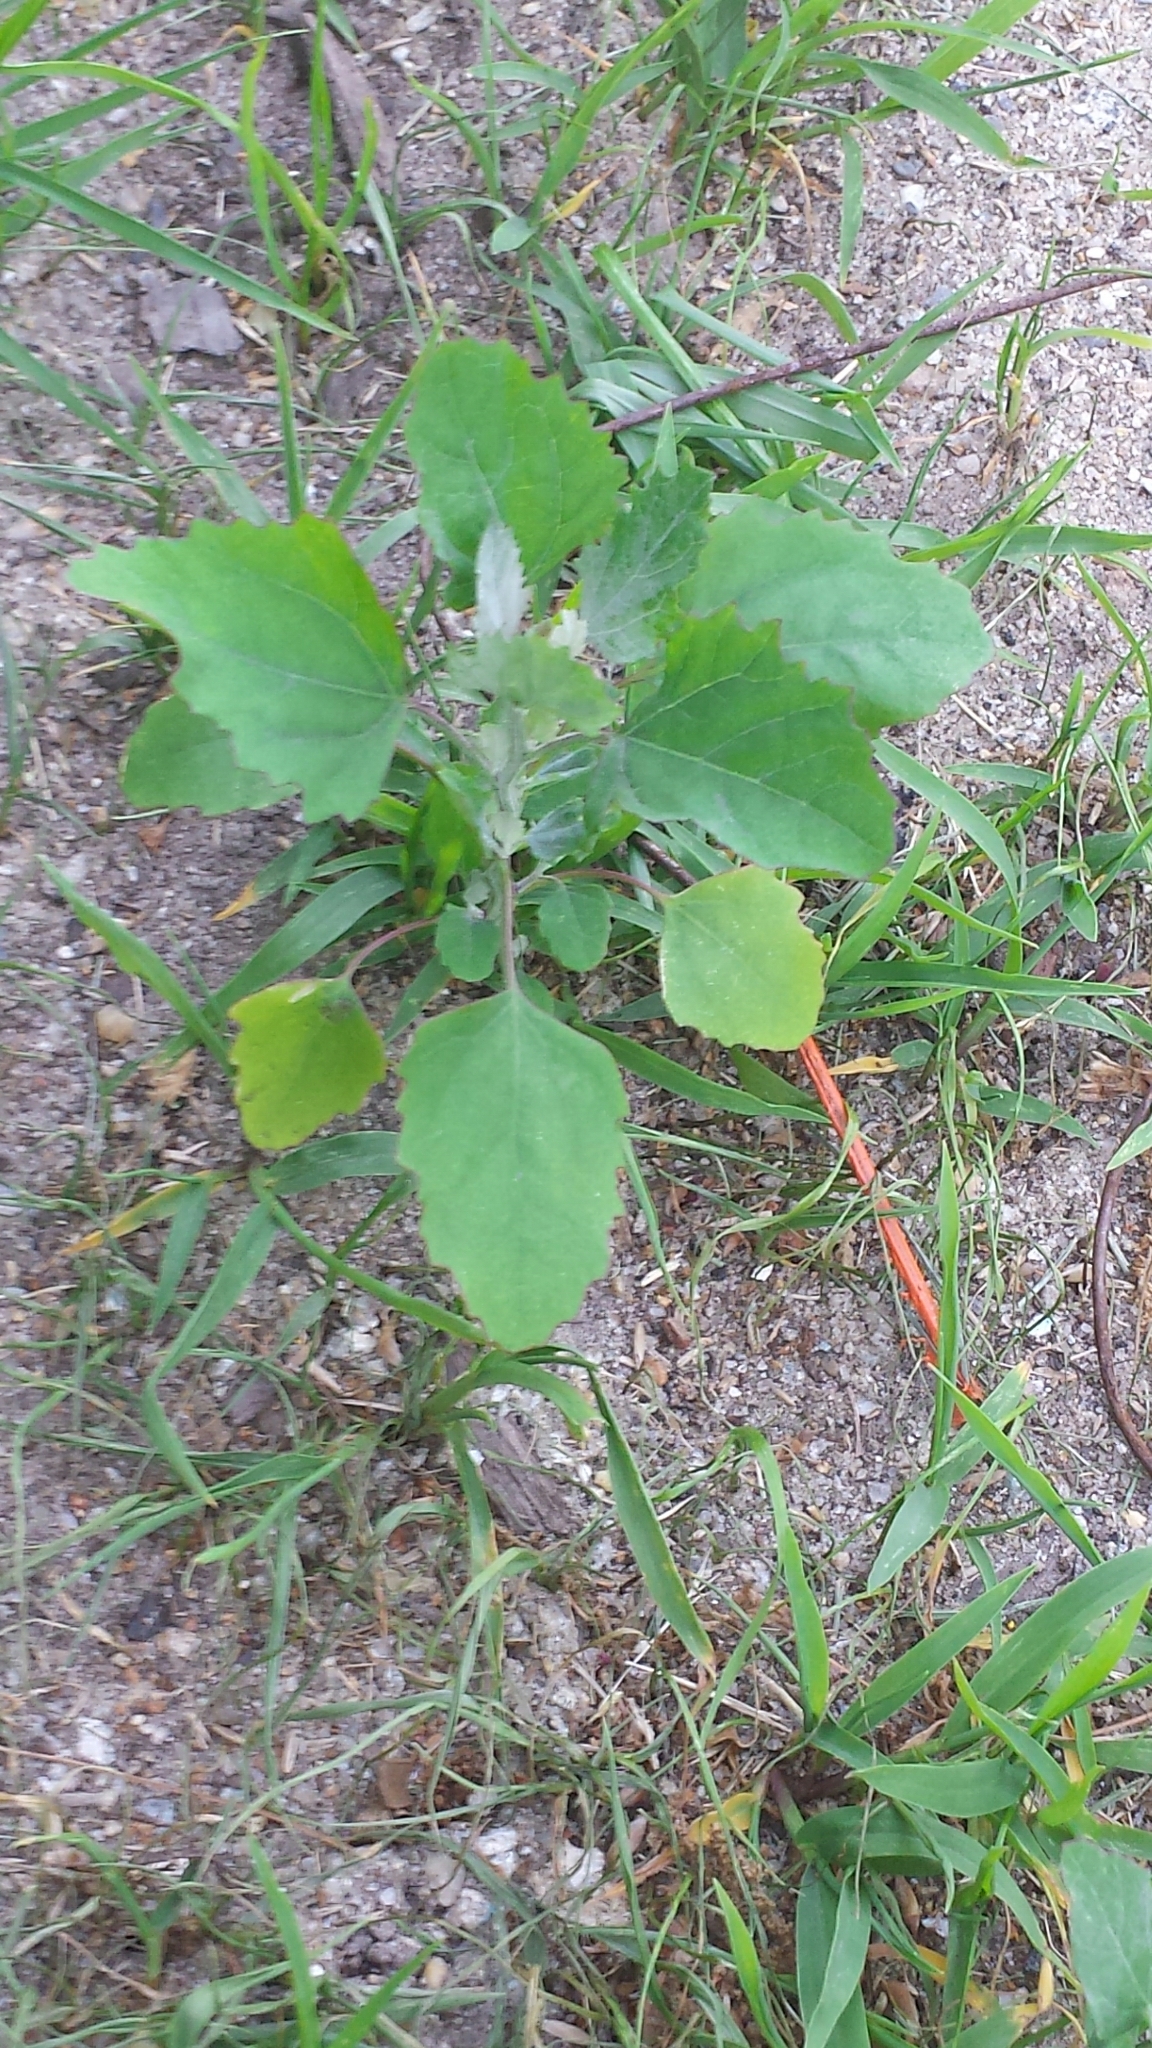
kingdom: Plantae
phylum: Tracheophyta
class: Magnoliopsida
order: Caryophyllales
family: Amaranthaceae
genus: Chenopodium
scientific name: Chenopodium album
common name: Fat-hen
